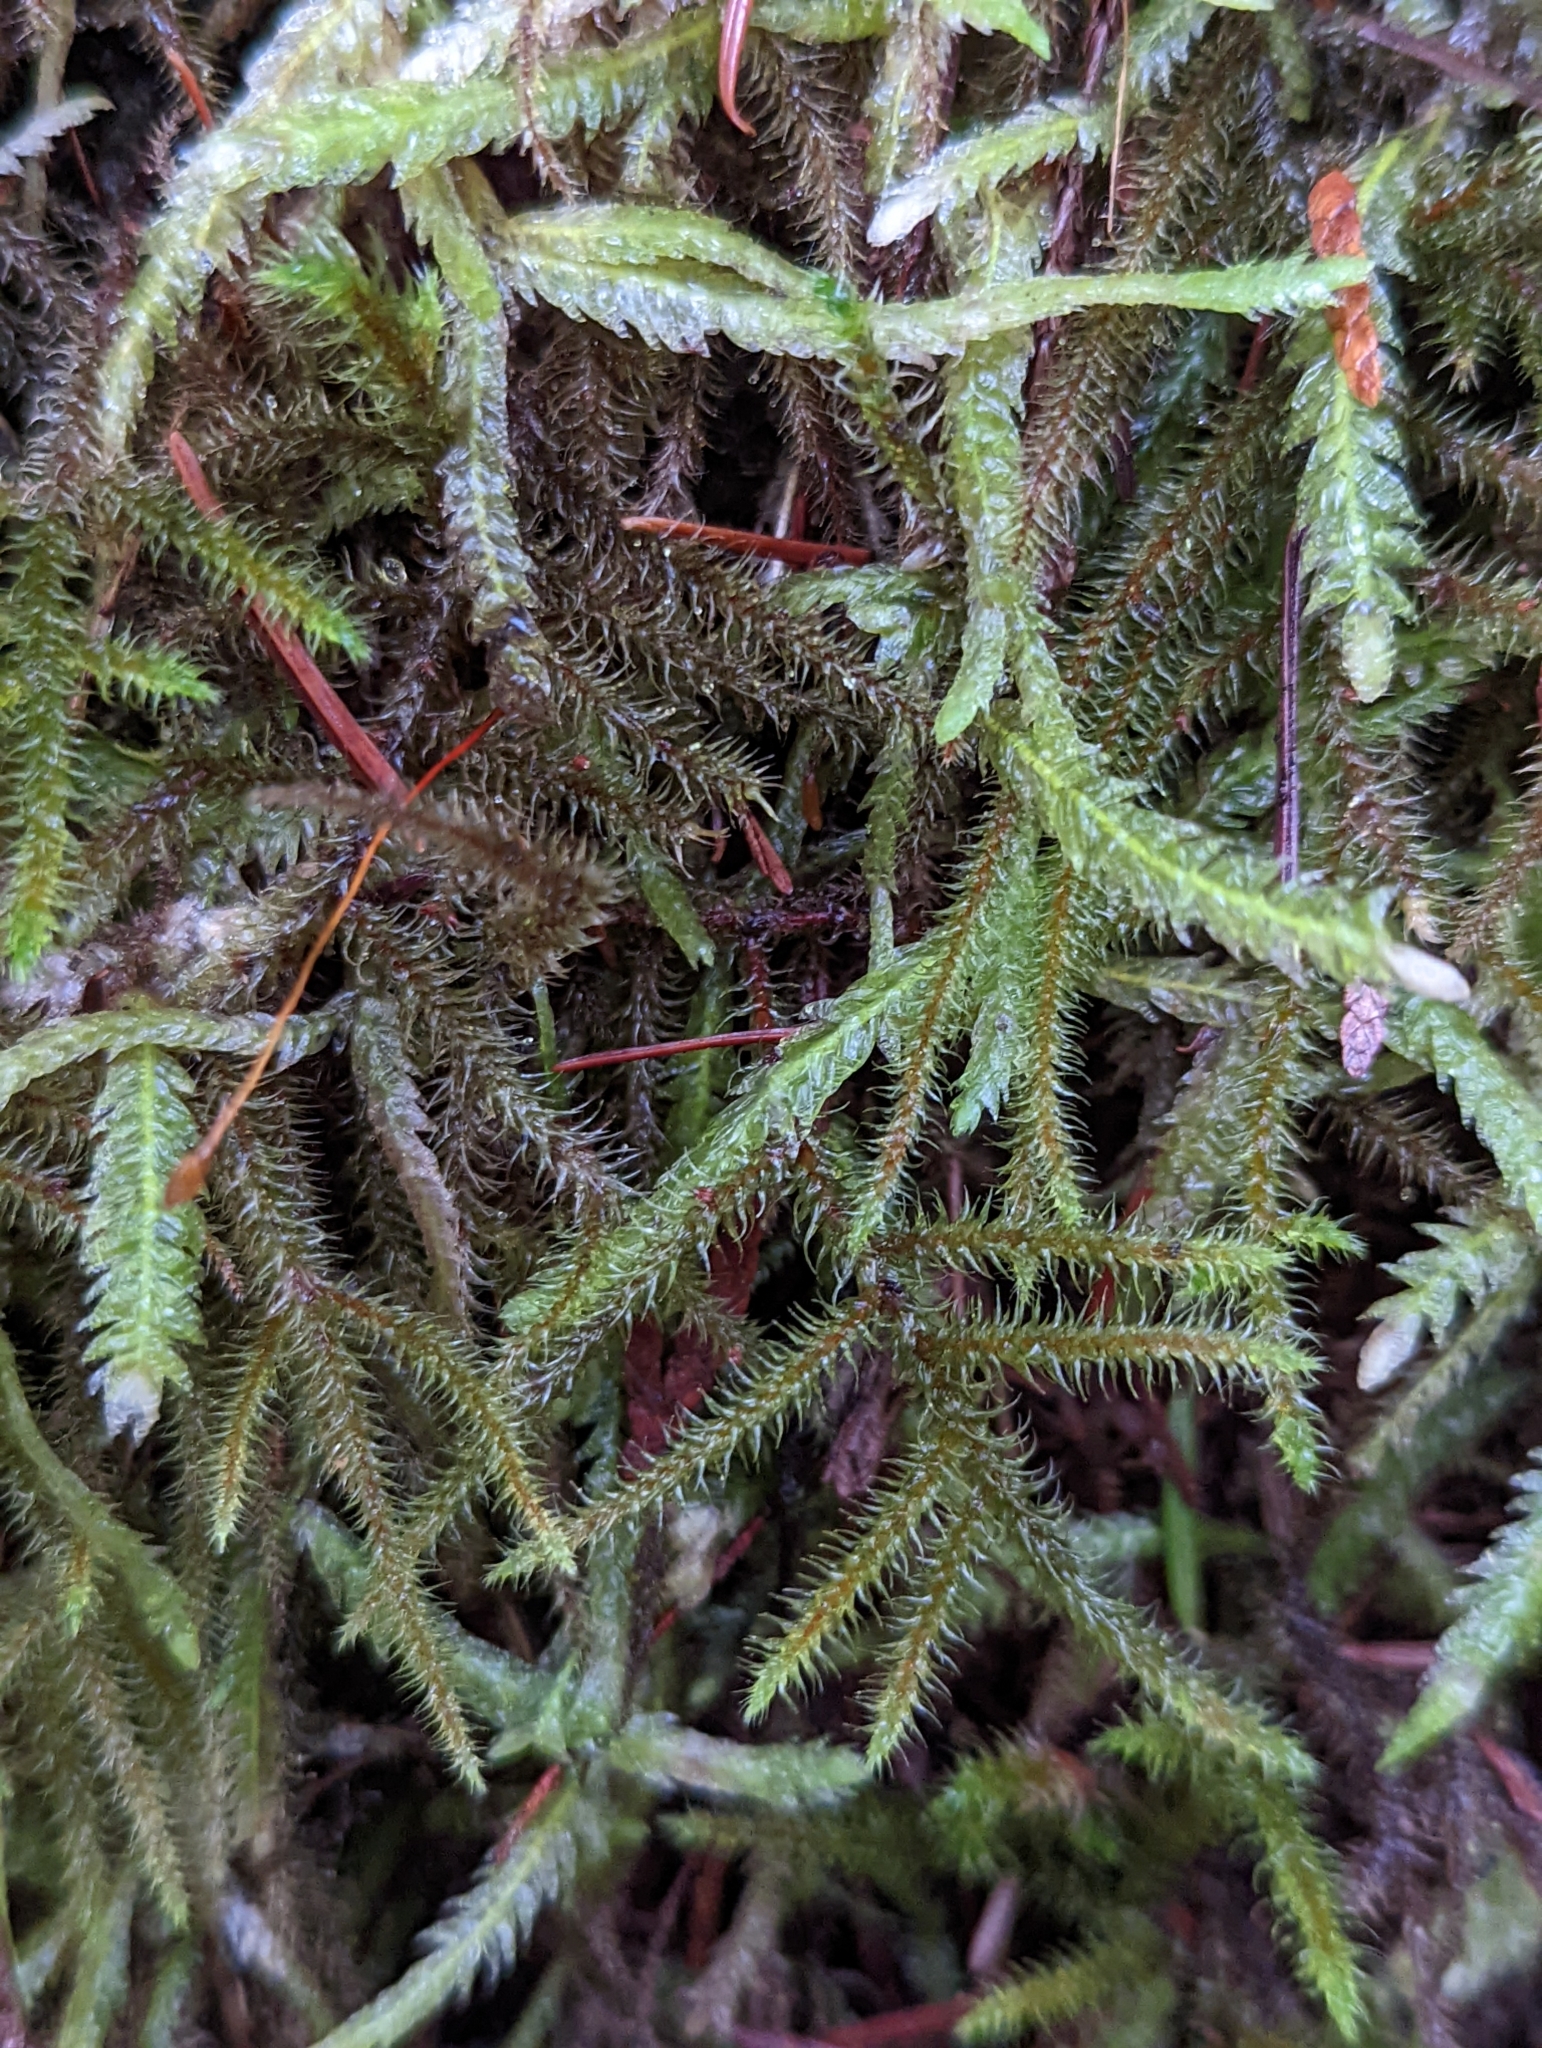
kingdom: Plantae
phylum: Bryophyta
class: Bryopsida
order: Hypnales
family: Hylocomiaceae
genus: Rhytidiadelphus
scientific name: Rhytidiadelphus loreus
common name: Lanky moss
